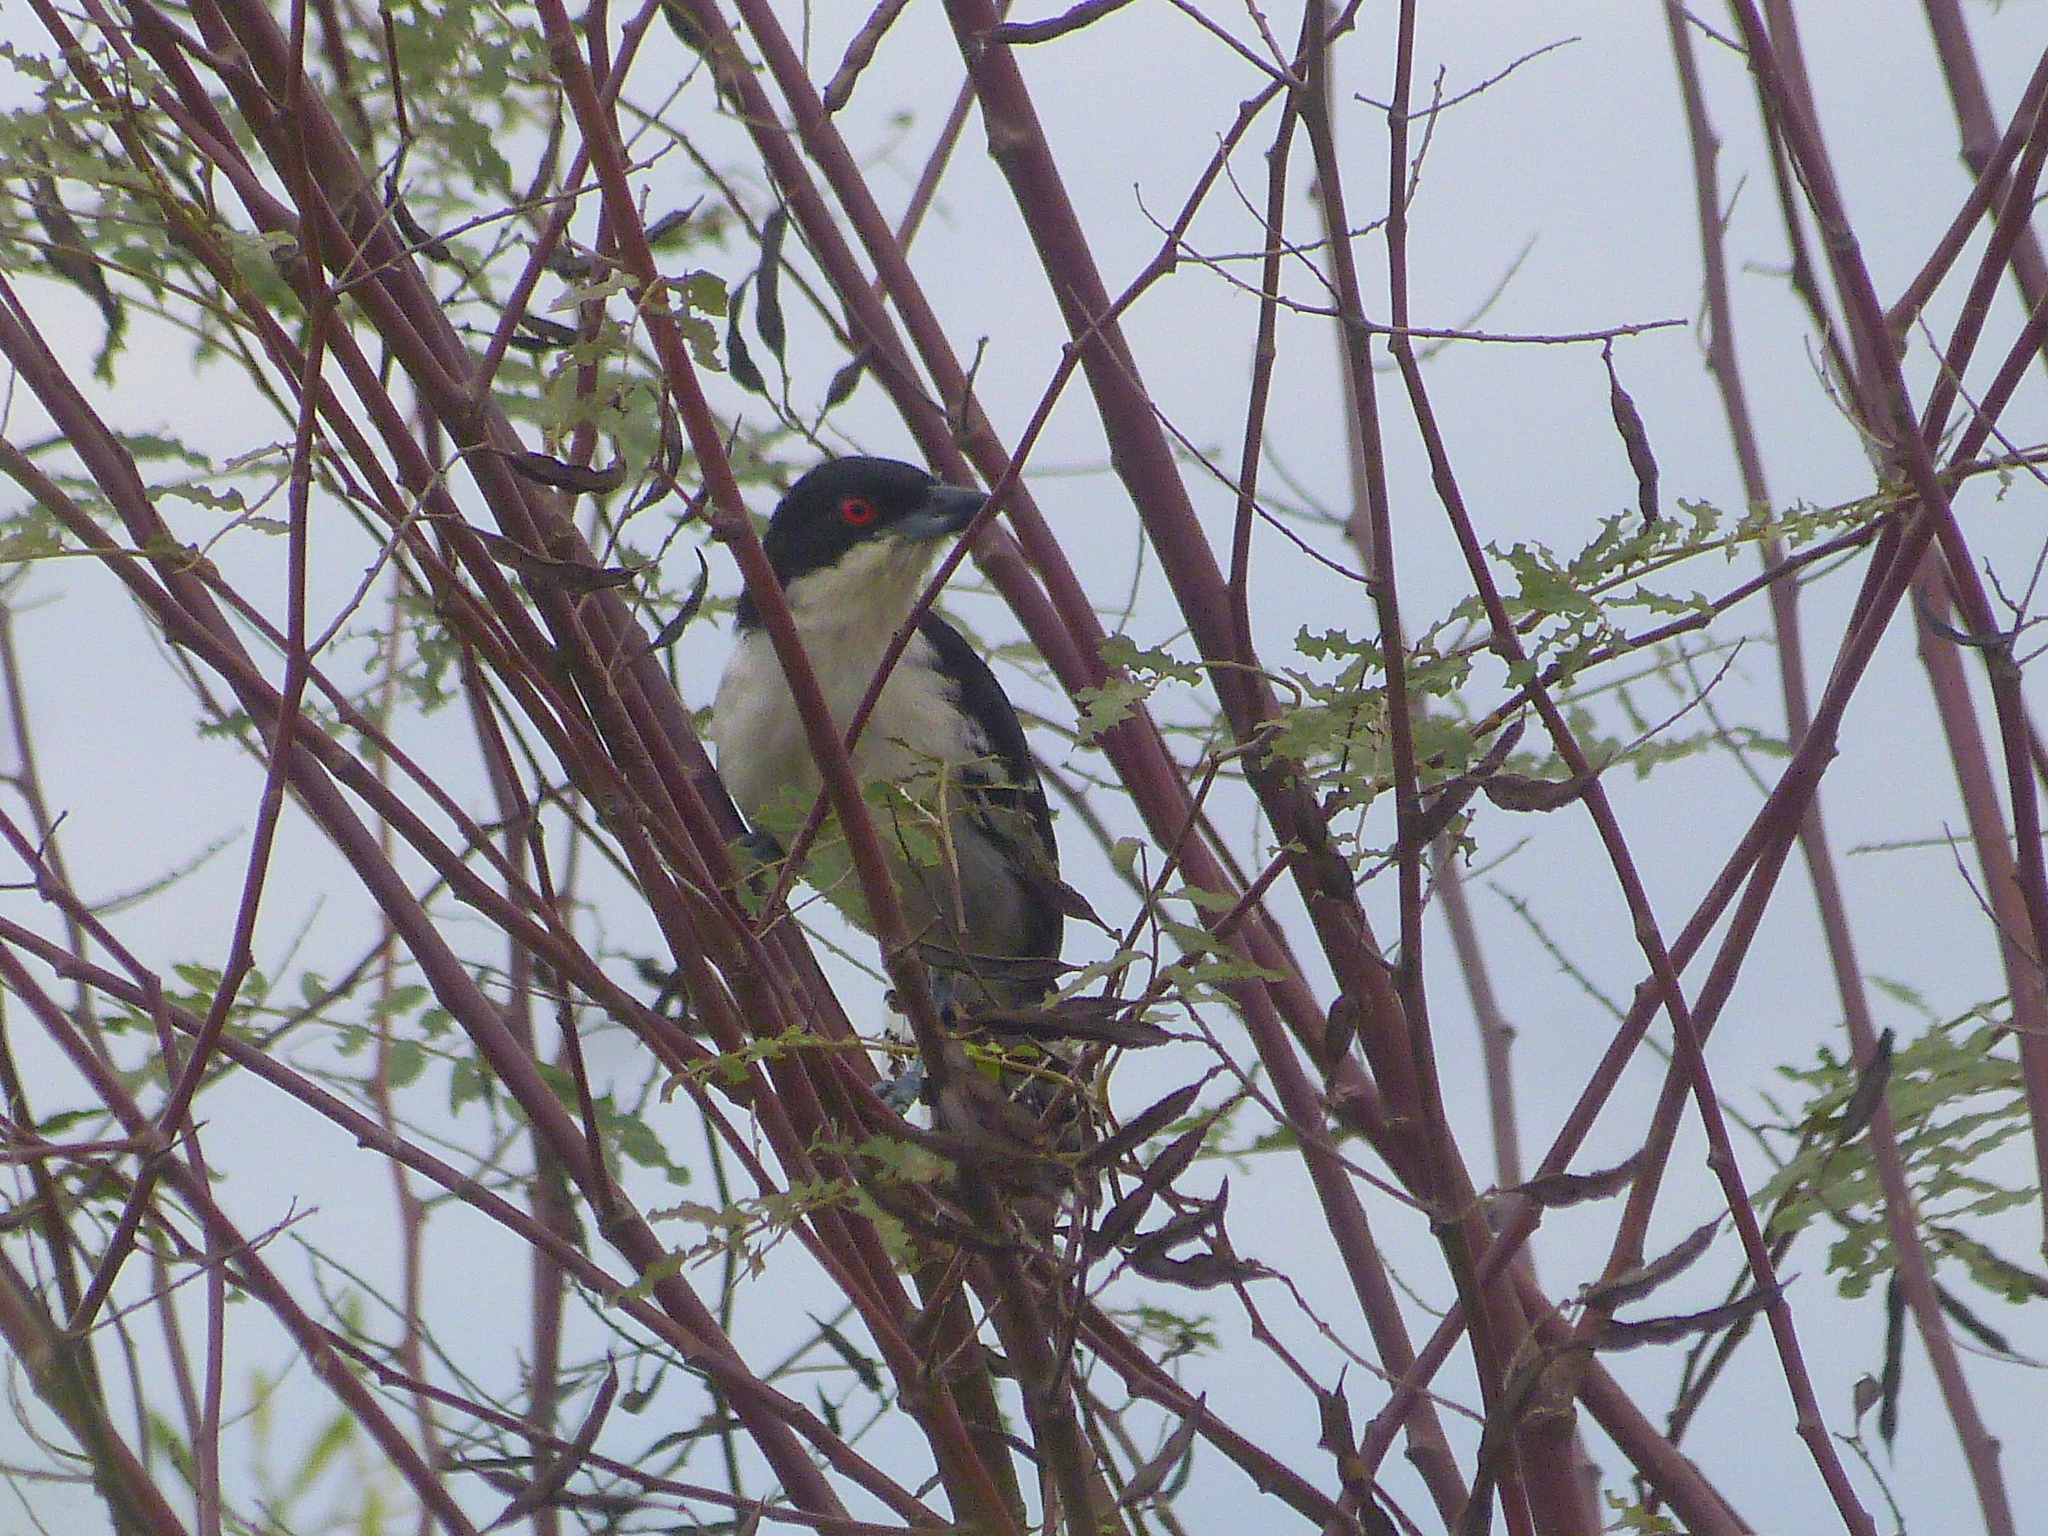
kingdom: Animalia
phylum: Chordata
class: Aves
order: Passeriformes
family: Thamnophilidae
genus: Taraba
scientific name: Taraba major
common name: Great antshrike
